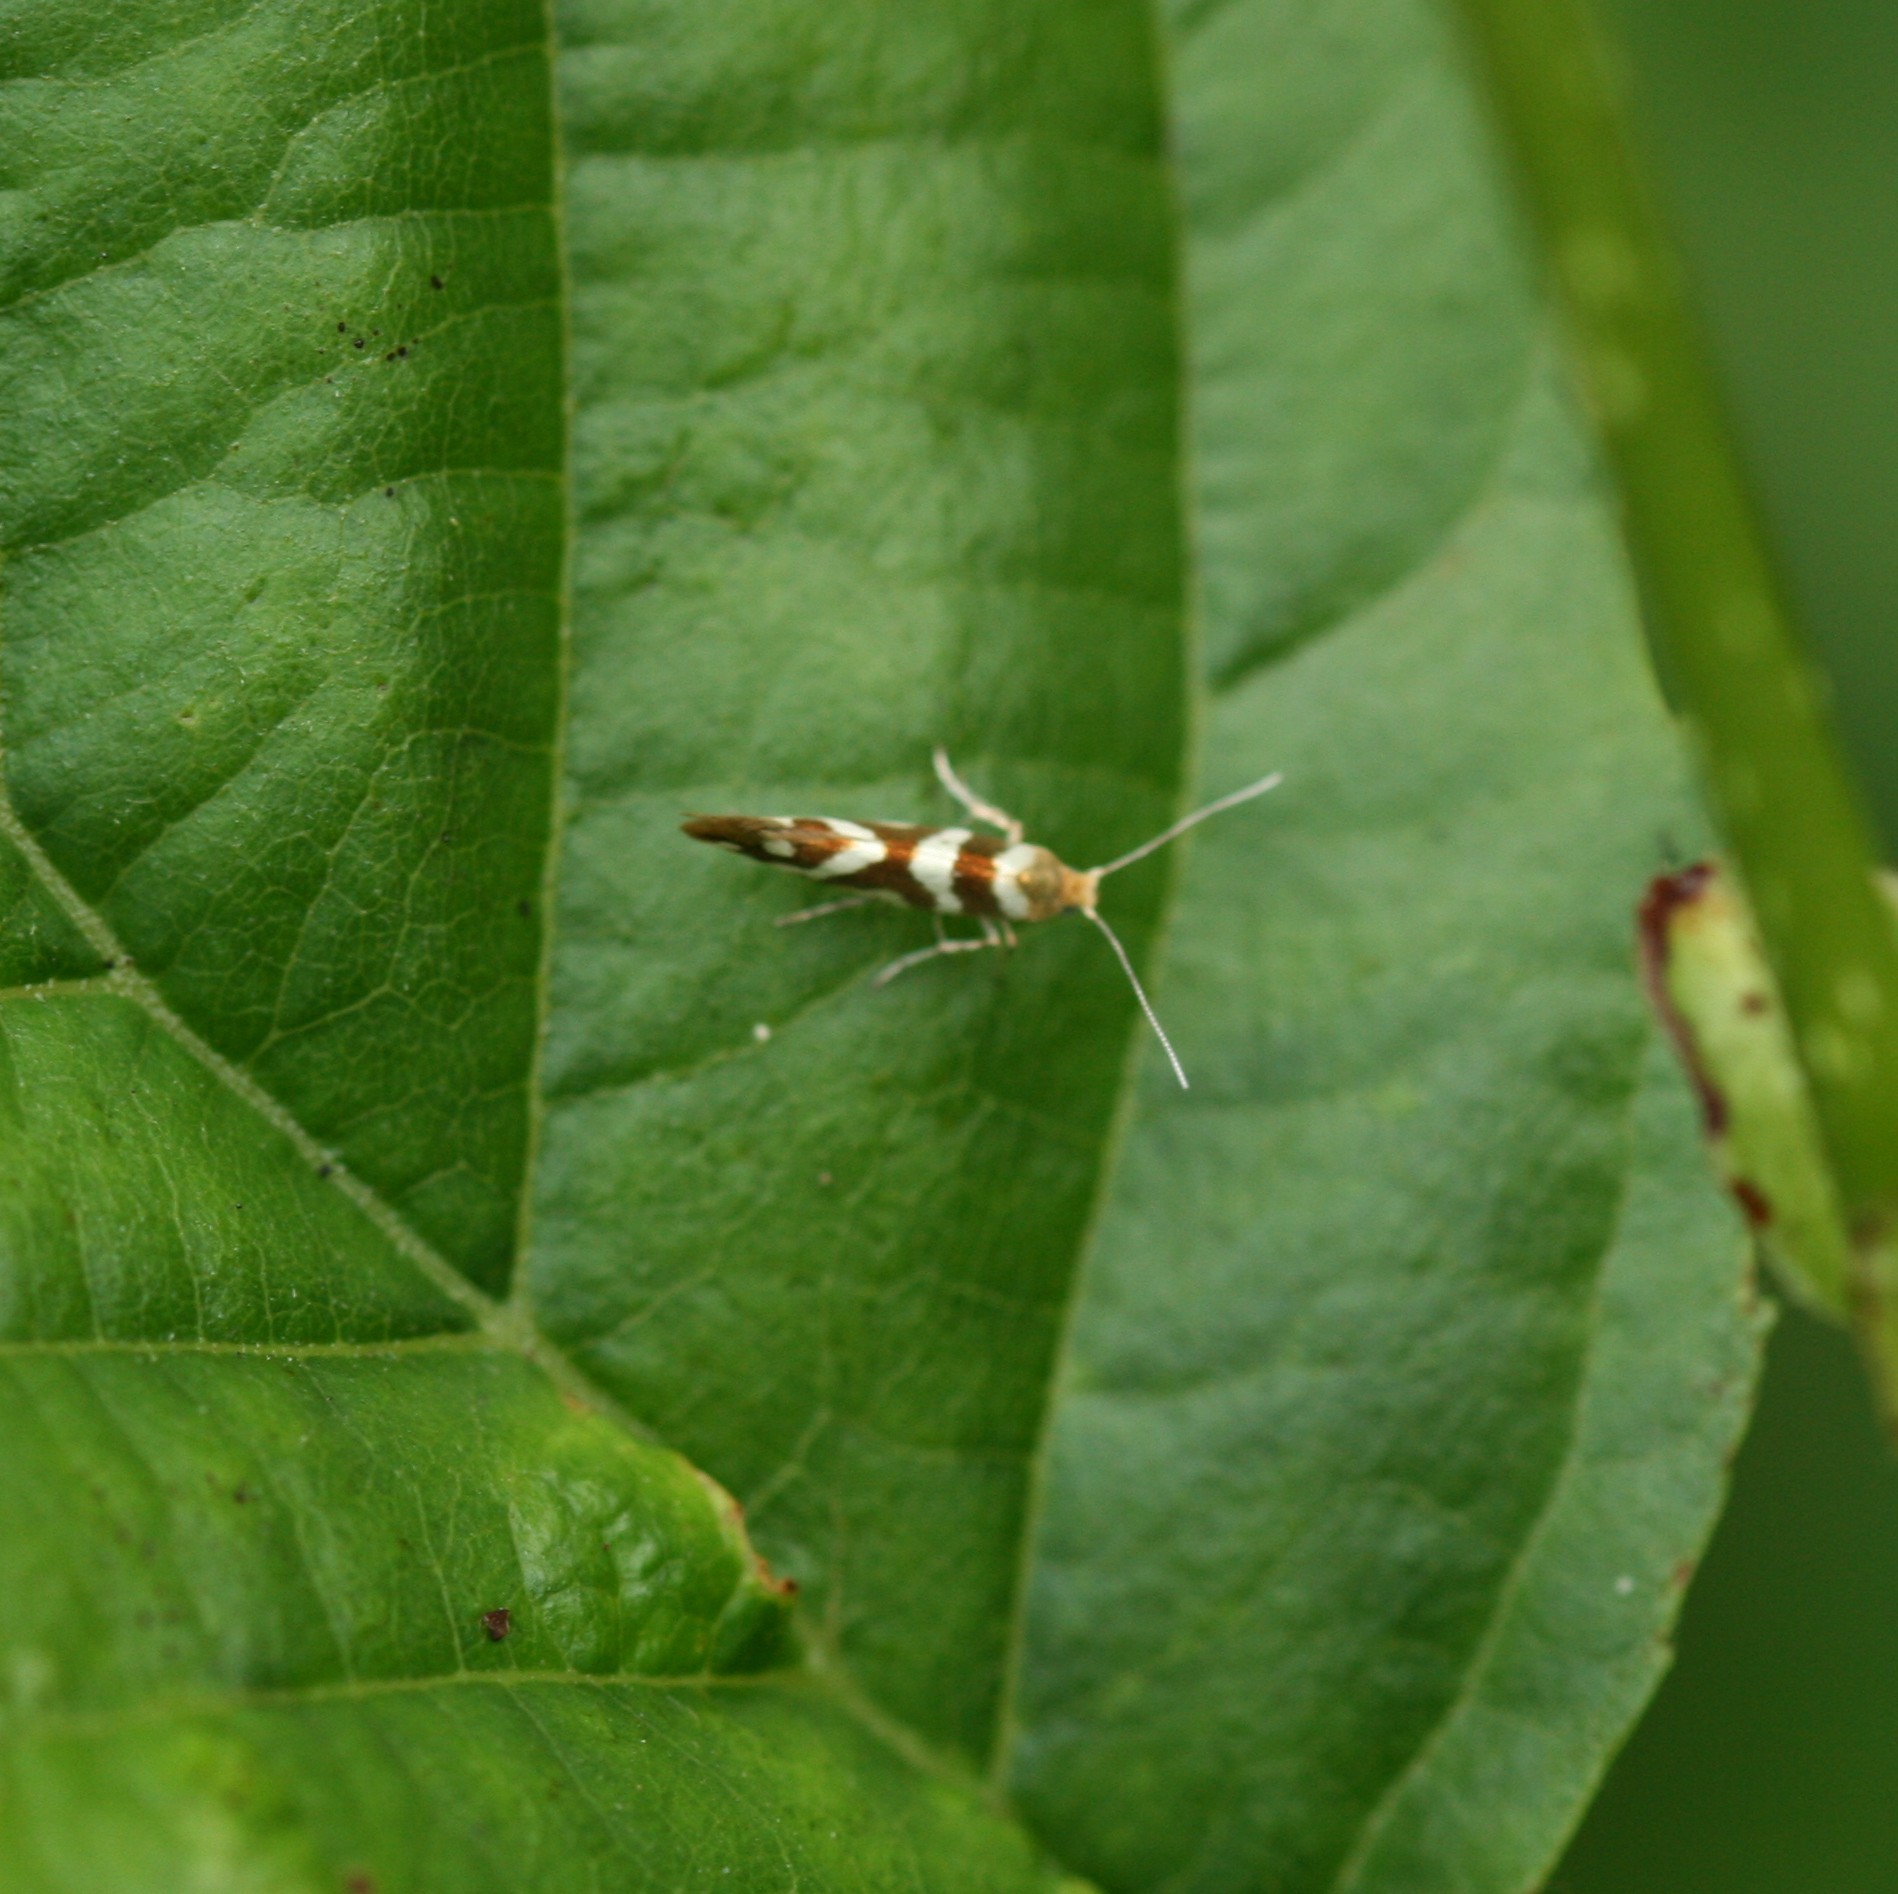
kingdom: Animalia
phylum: Arthropoda
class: Insecta
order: Lepidoptera
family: Argyresthiidae
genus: Argyresthia
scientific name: Argyresthia goedartella
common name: Golden argent
